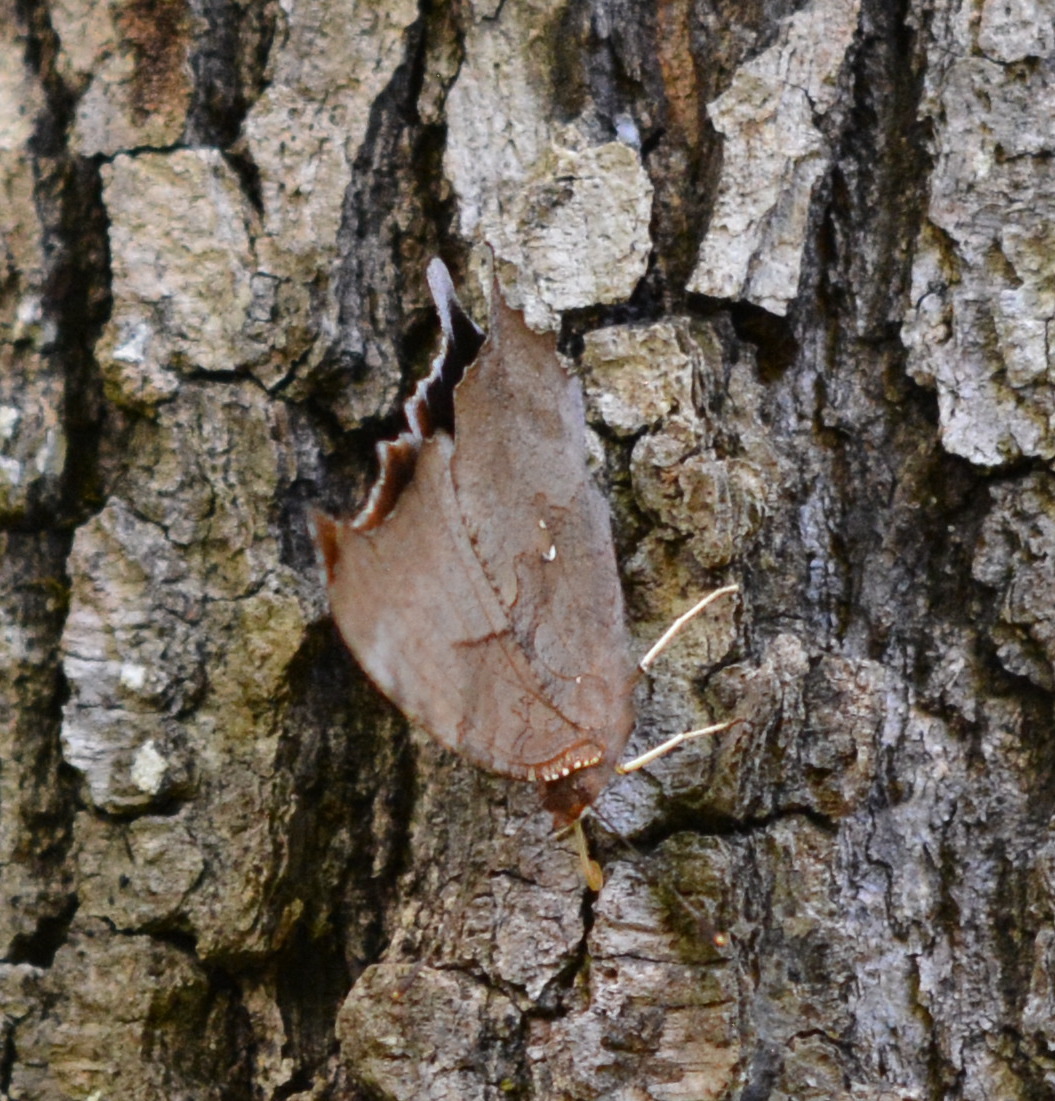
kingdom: Animalia
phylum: Arthropoda
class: Insecta
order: Lepidoptera
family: Nymphalidae
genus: Polygonia
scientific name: Polygonia interrogationis
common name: Question mark
